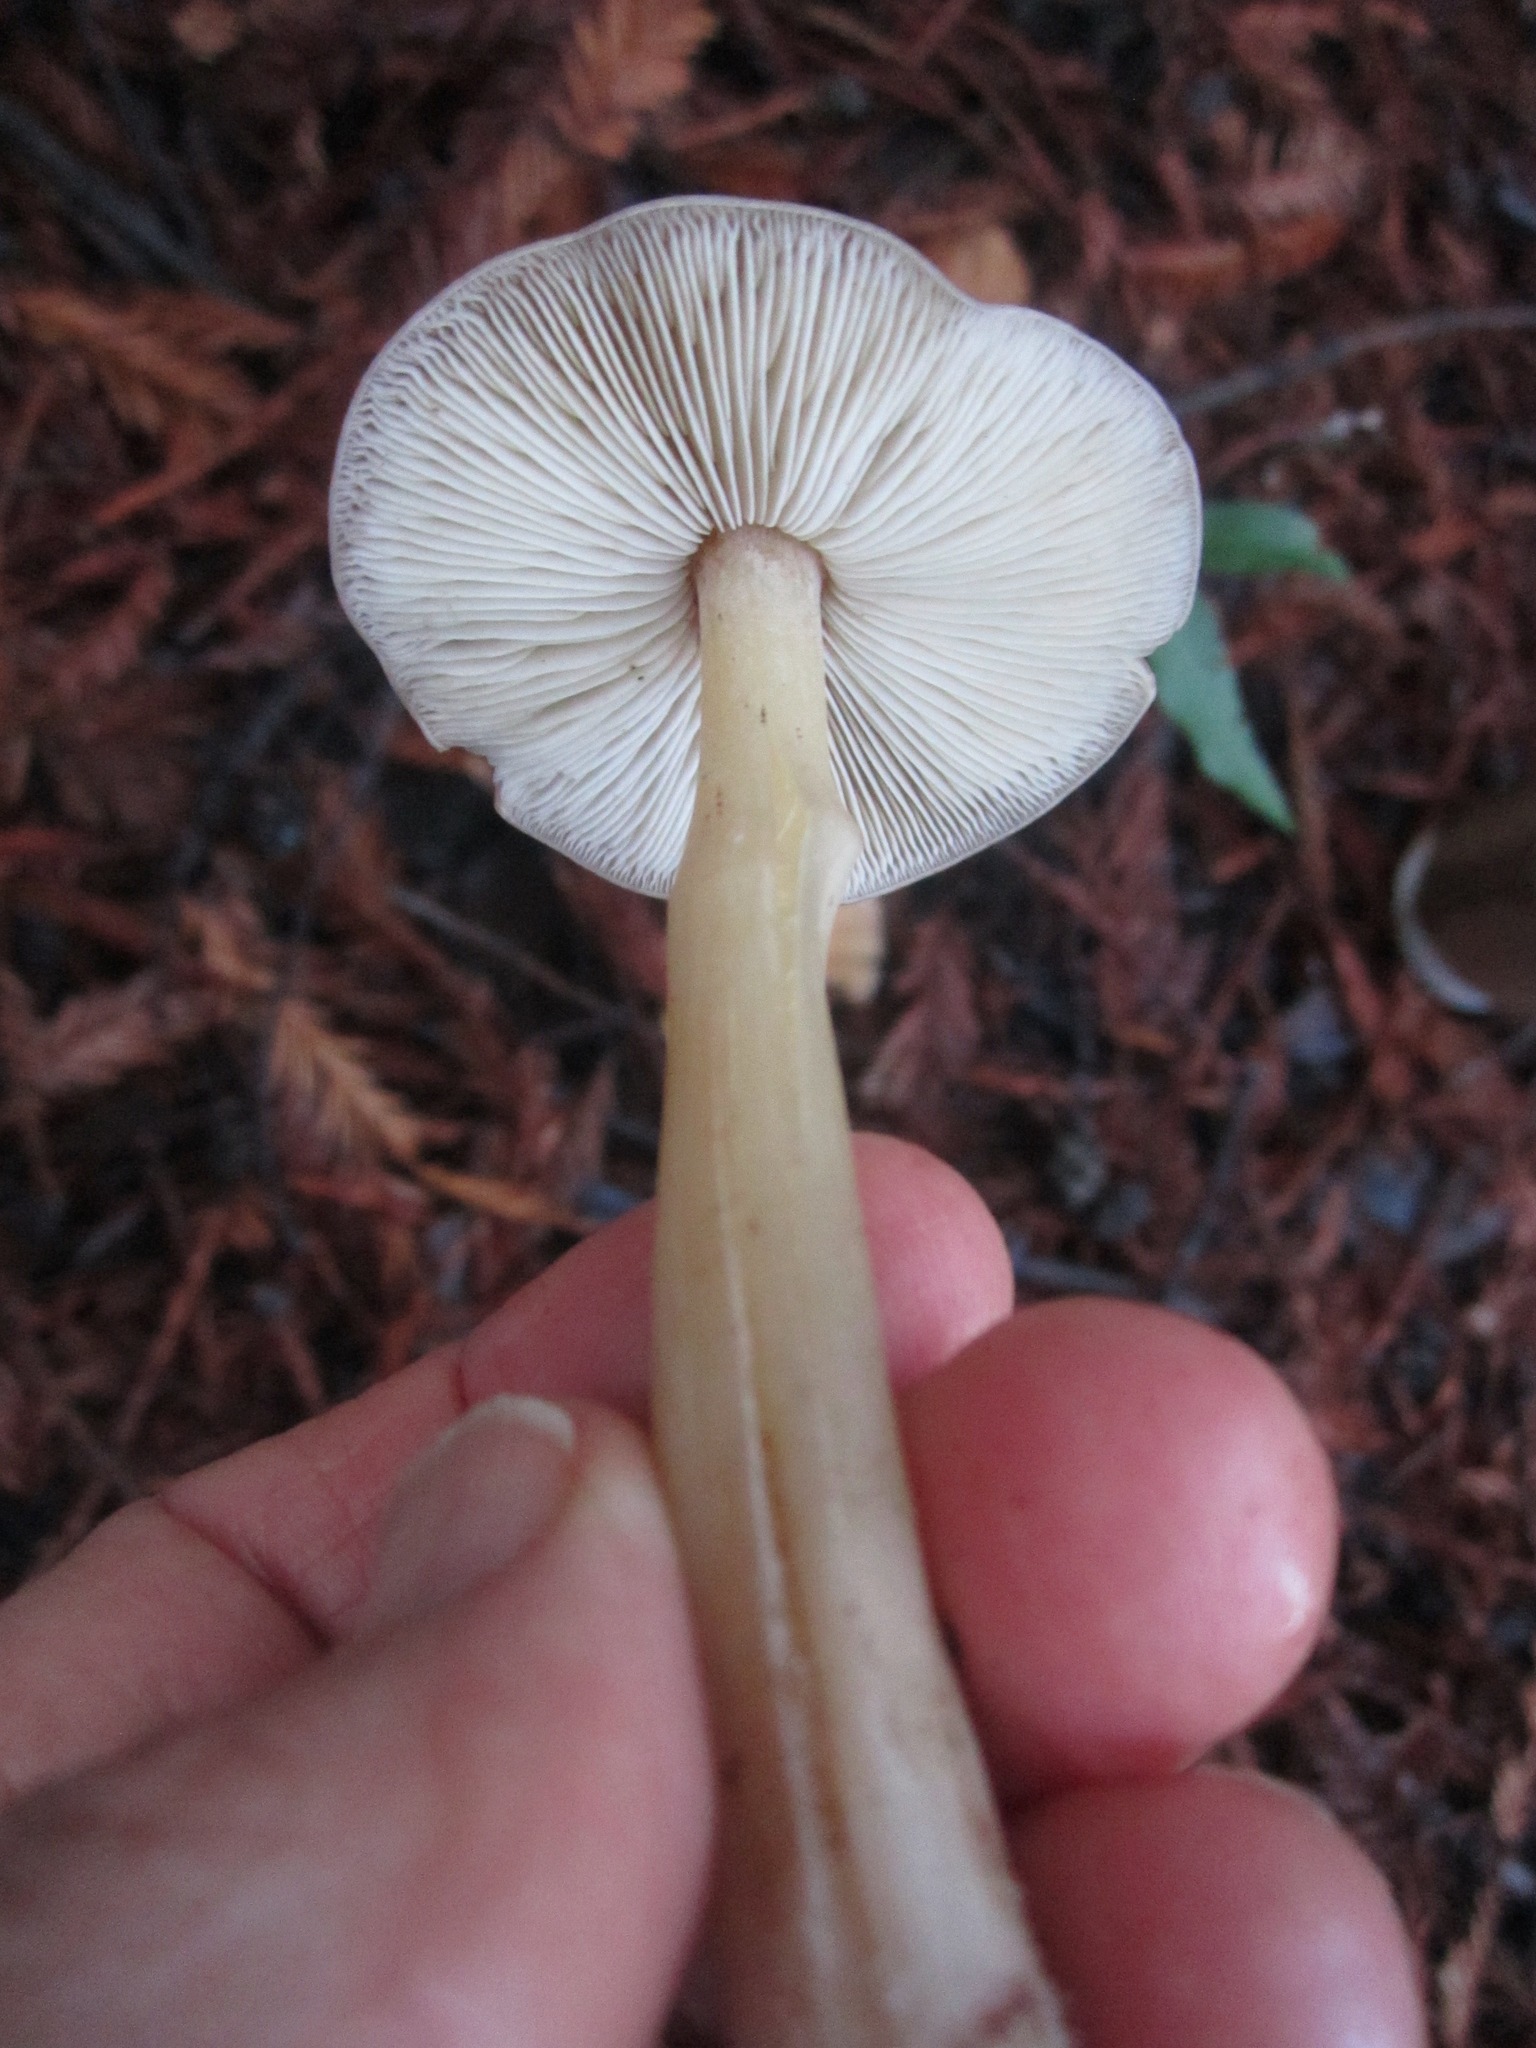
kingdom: Fungi
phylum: Basidiomycota
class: Agaricomycetes
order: Agaricales
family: Tricholomataceae
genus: Caulorhiza
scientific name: Caulorhiza umbonata
